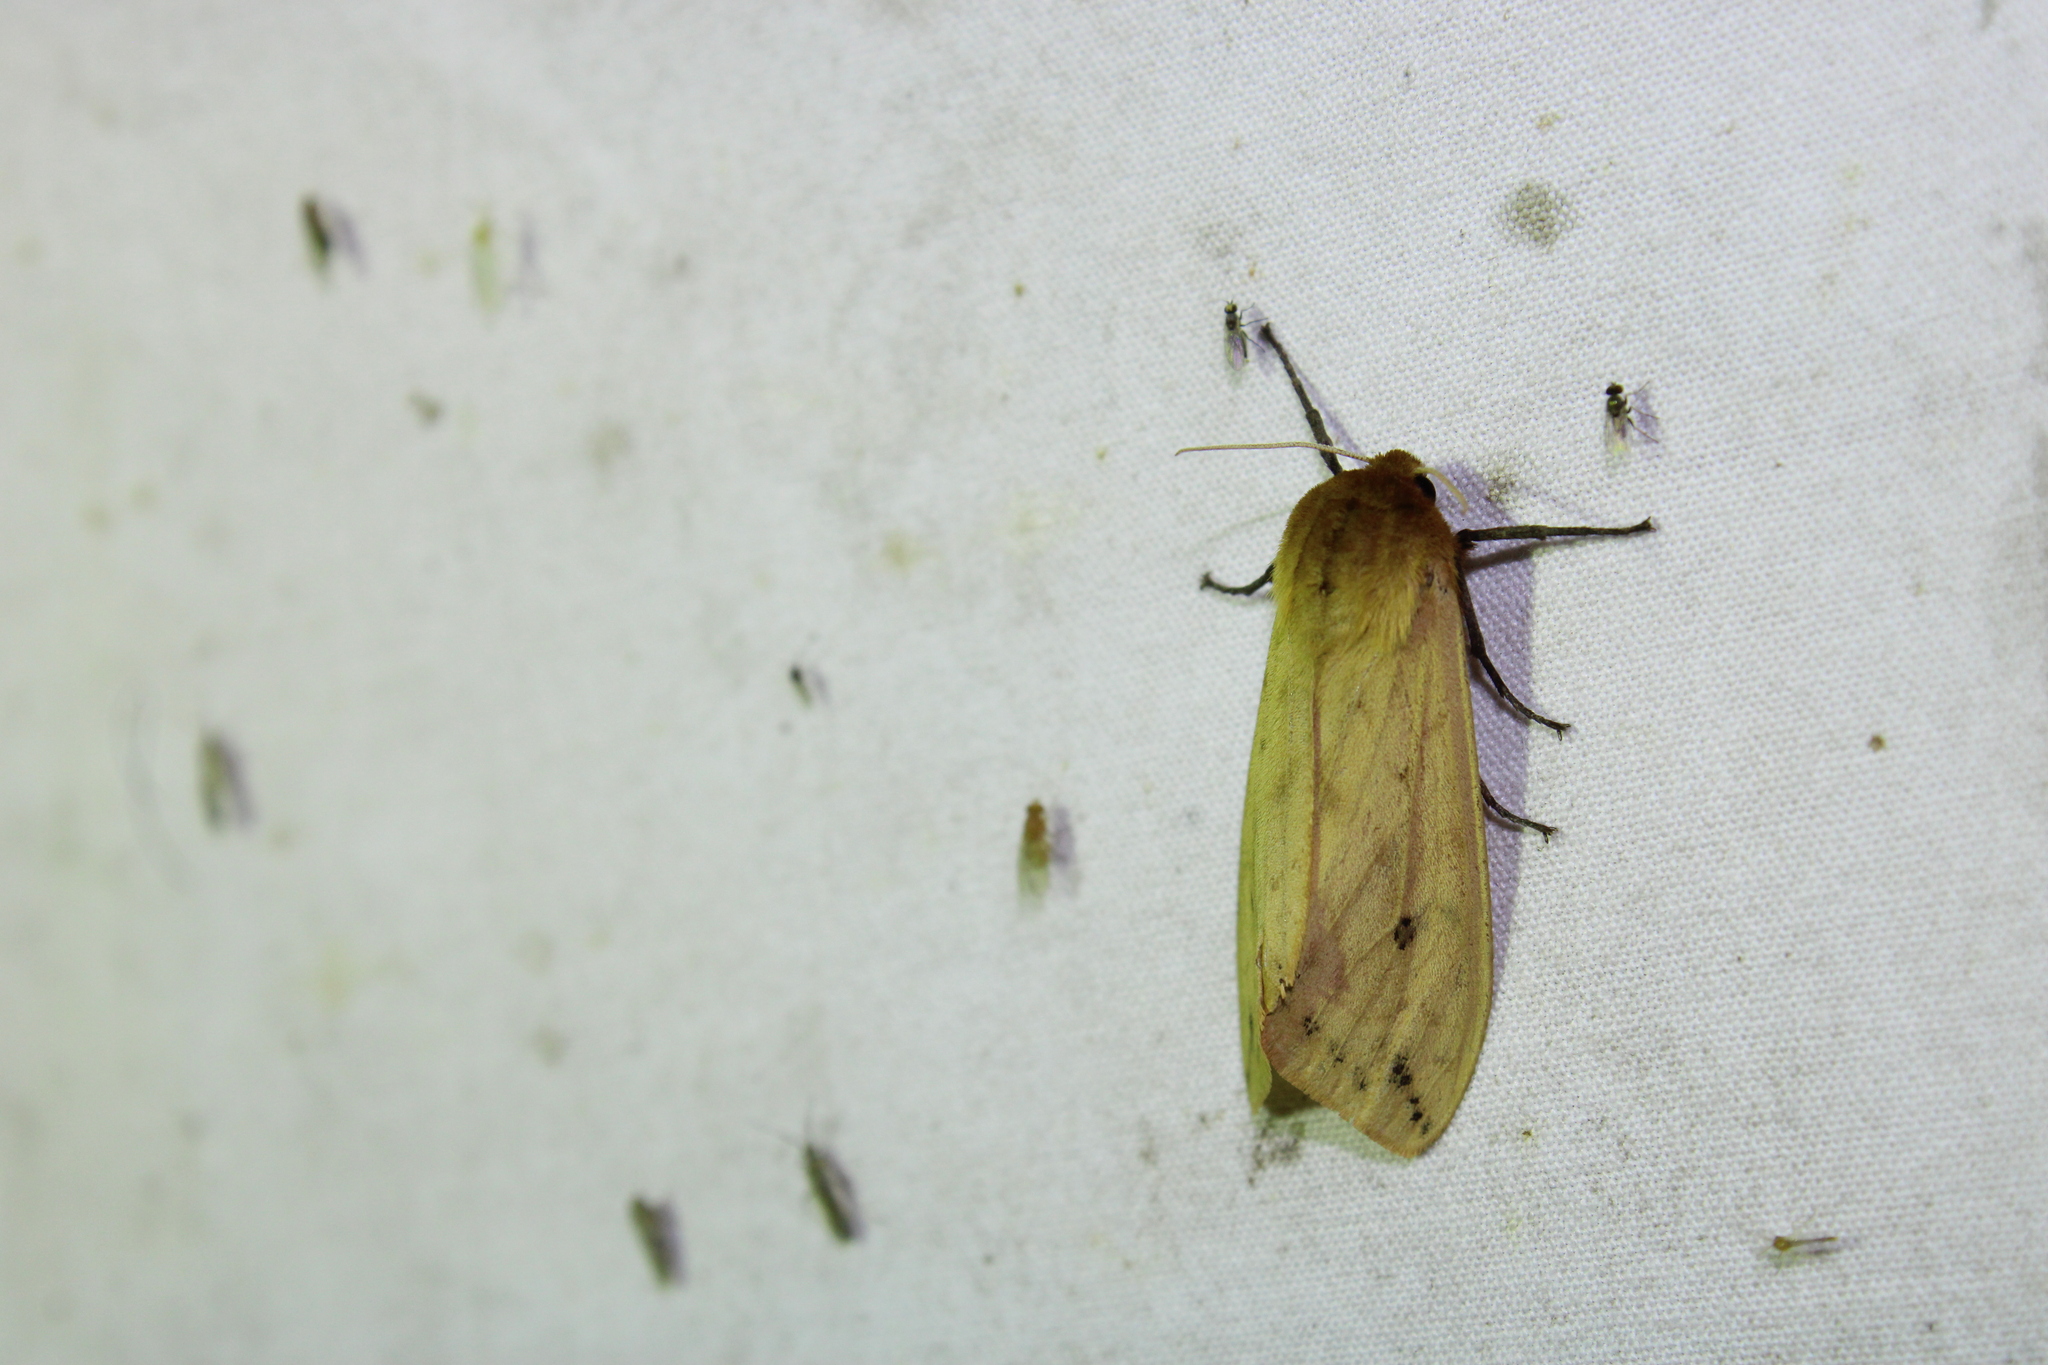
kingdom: Animalia
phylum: Arthropoda
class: Insecta
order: Lepidoptera
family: Erebidae
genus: Pyrrharctia
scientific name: Pyrrharctia isabella
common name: Isabella tiger moth
